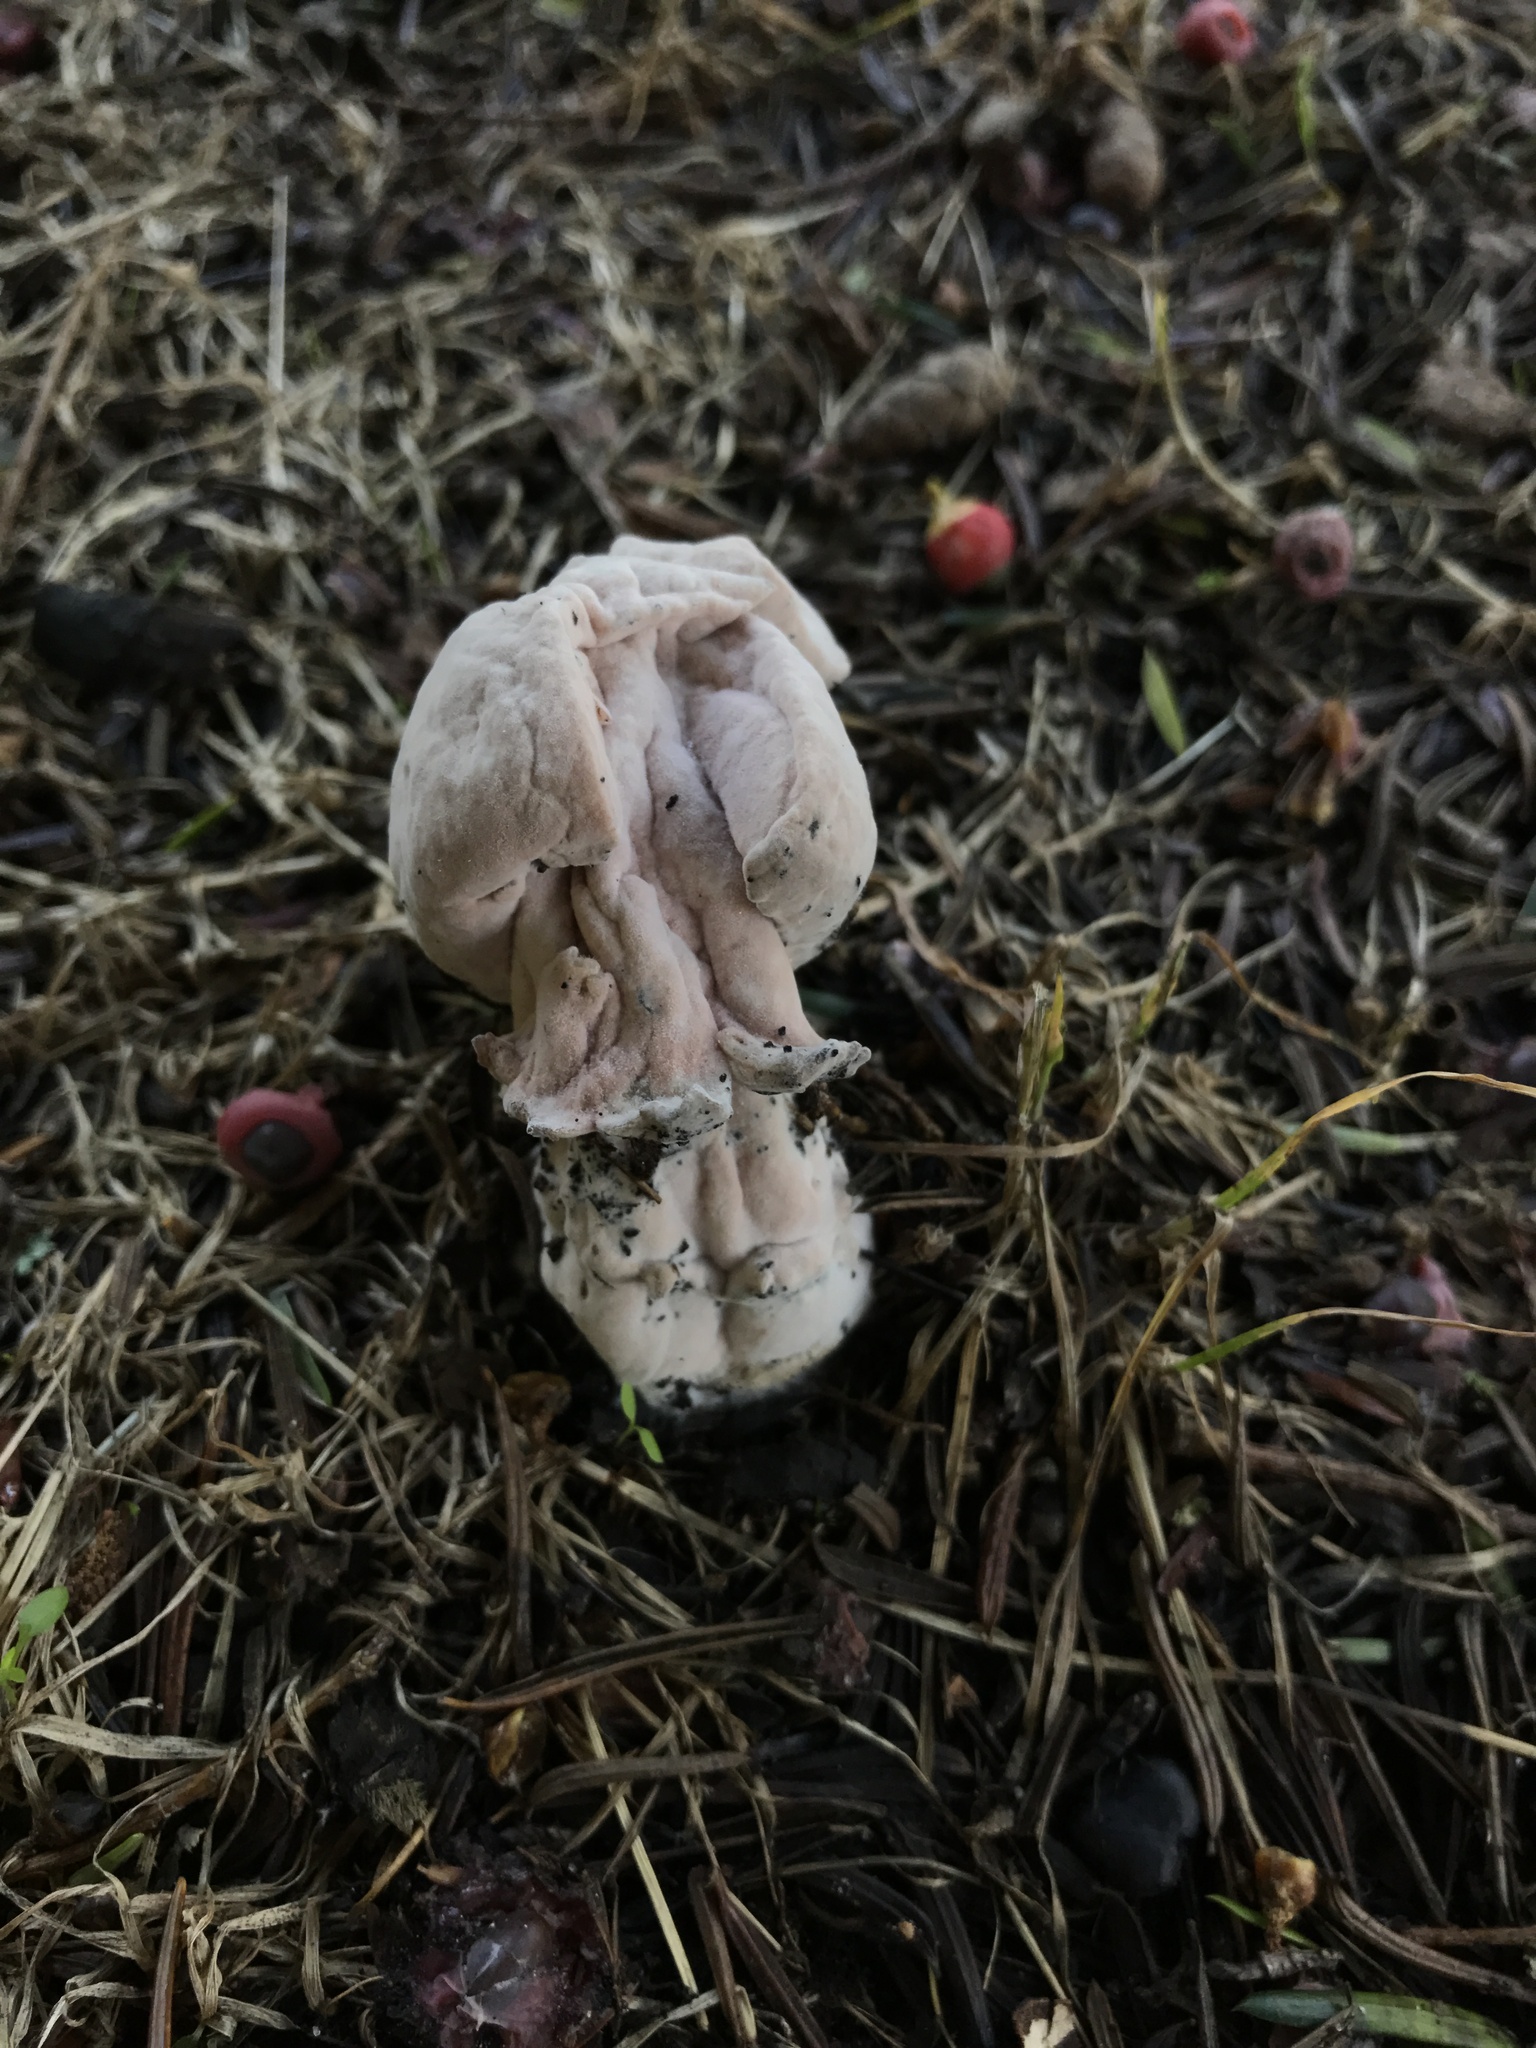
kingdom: Fungi
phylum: Ascomycota
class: Sordariomycetes
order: Hypocreales
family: Hypocreaceae
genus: Mycogone
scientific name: Mycogone rosea
